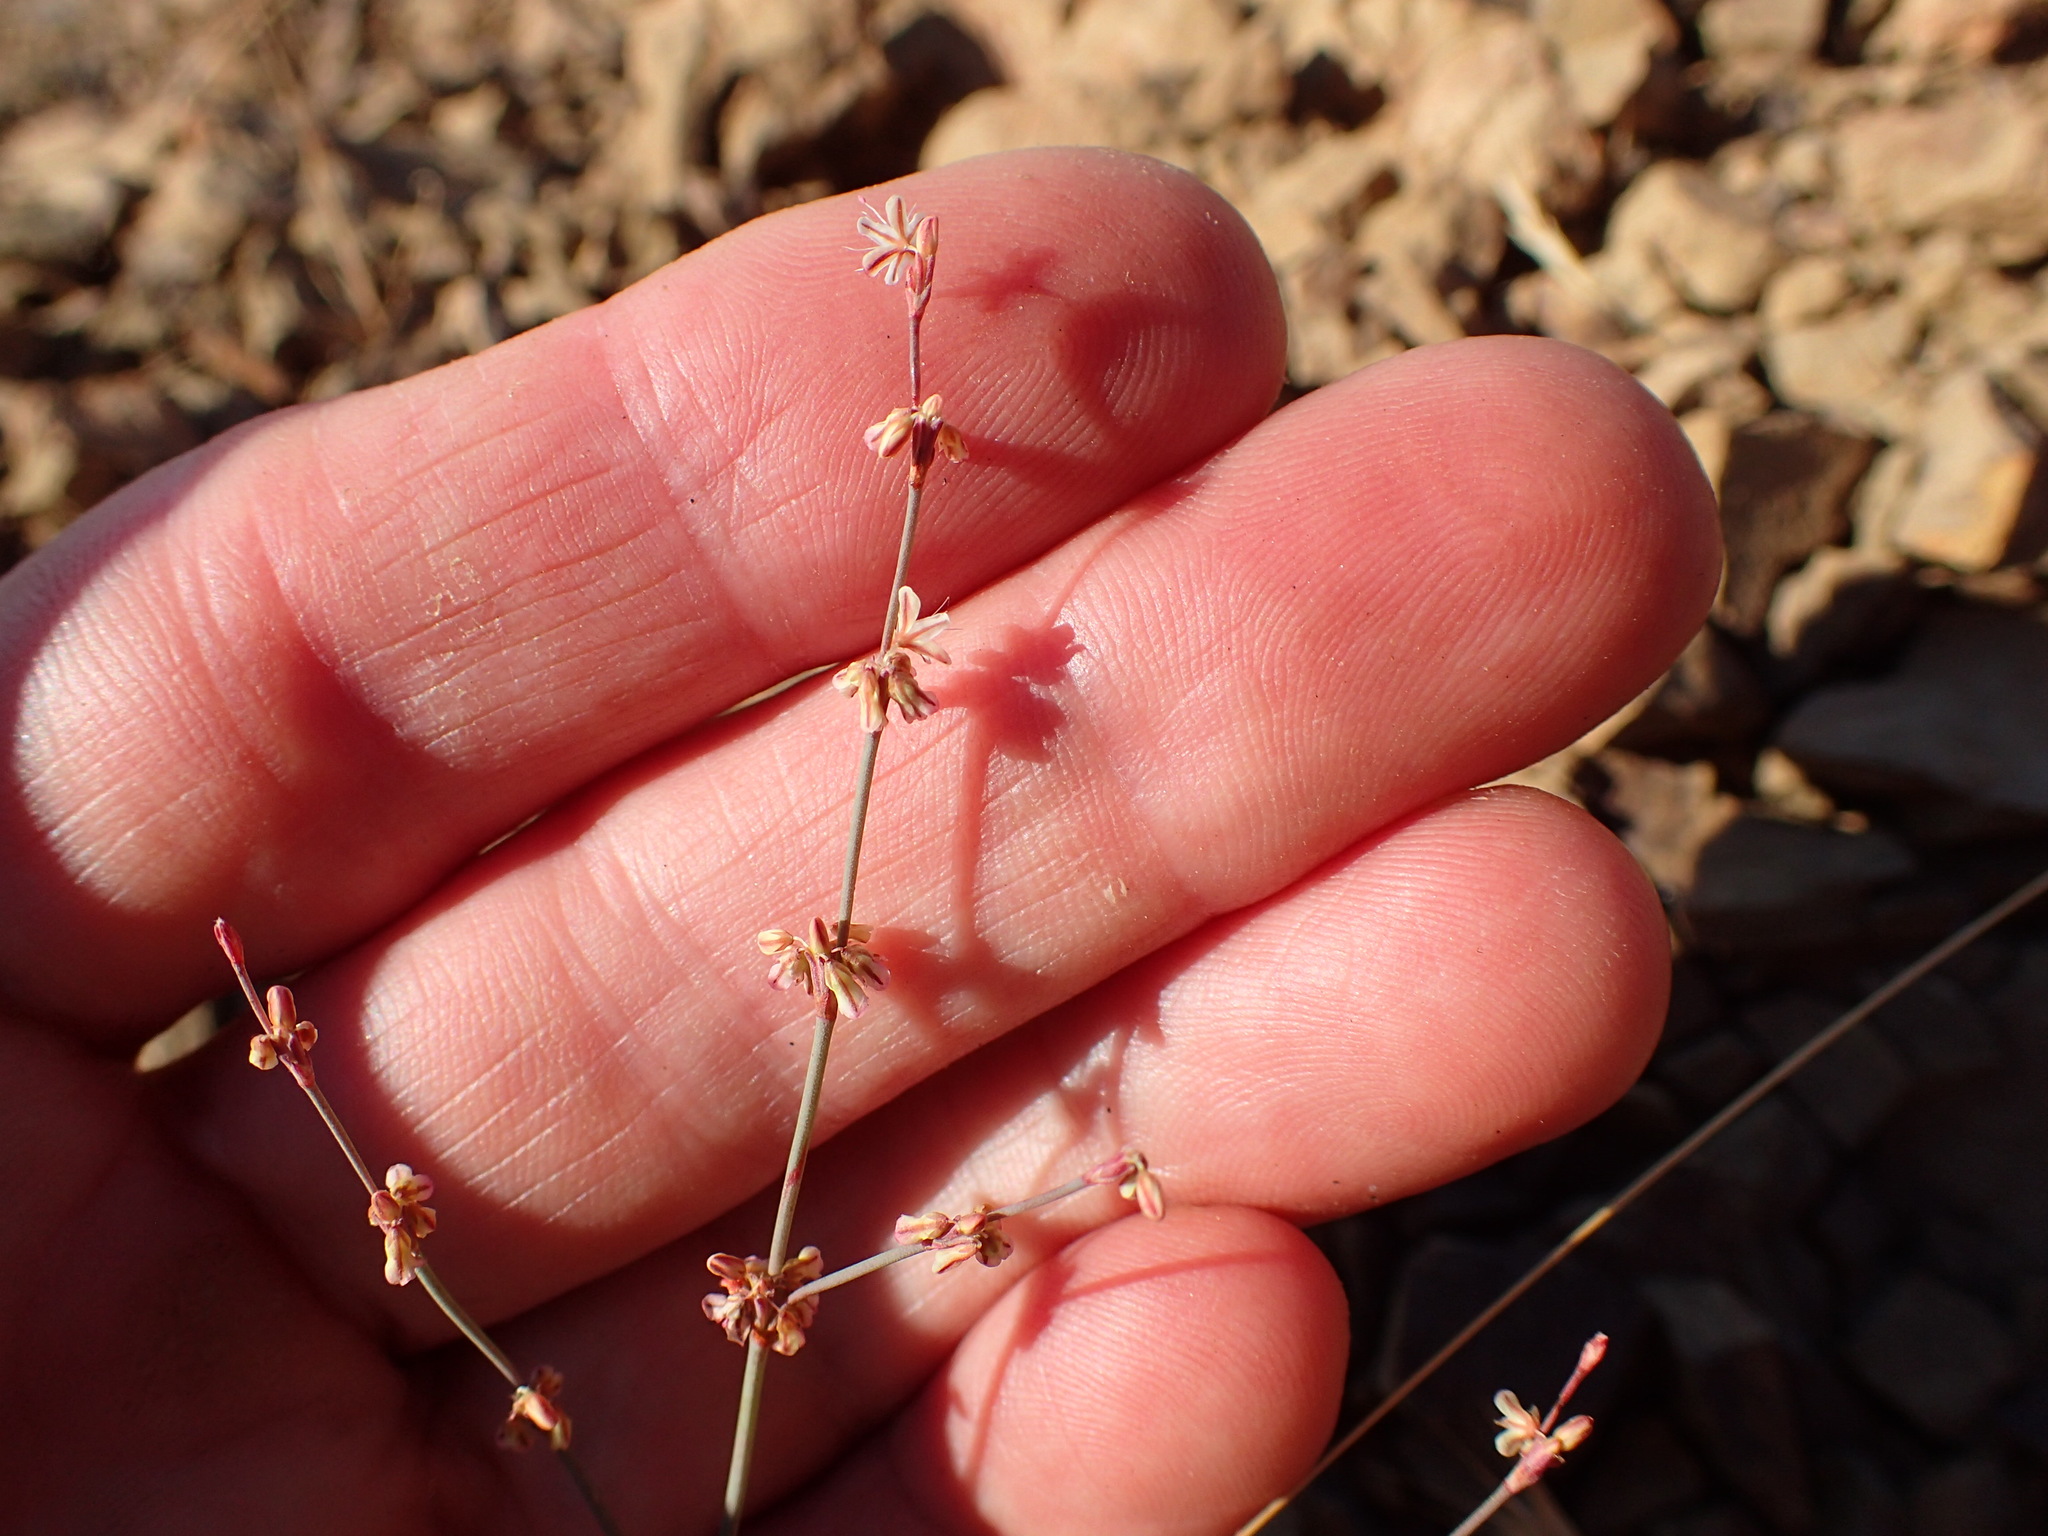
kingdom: Plantae
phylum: Tracheophyta
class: Magnoliopsida
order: Caryophyllales
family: Polygonaceae
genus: Eriogonum
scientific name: Eriogonum cithariforme
